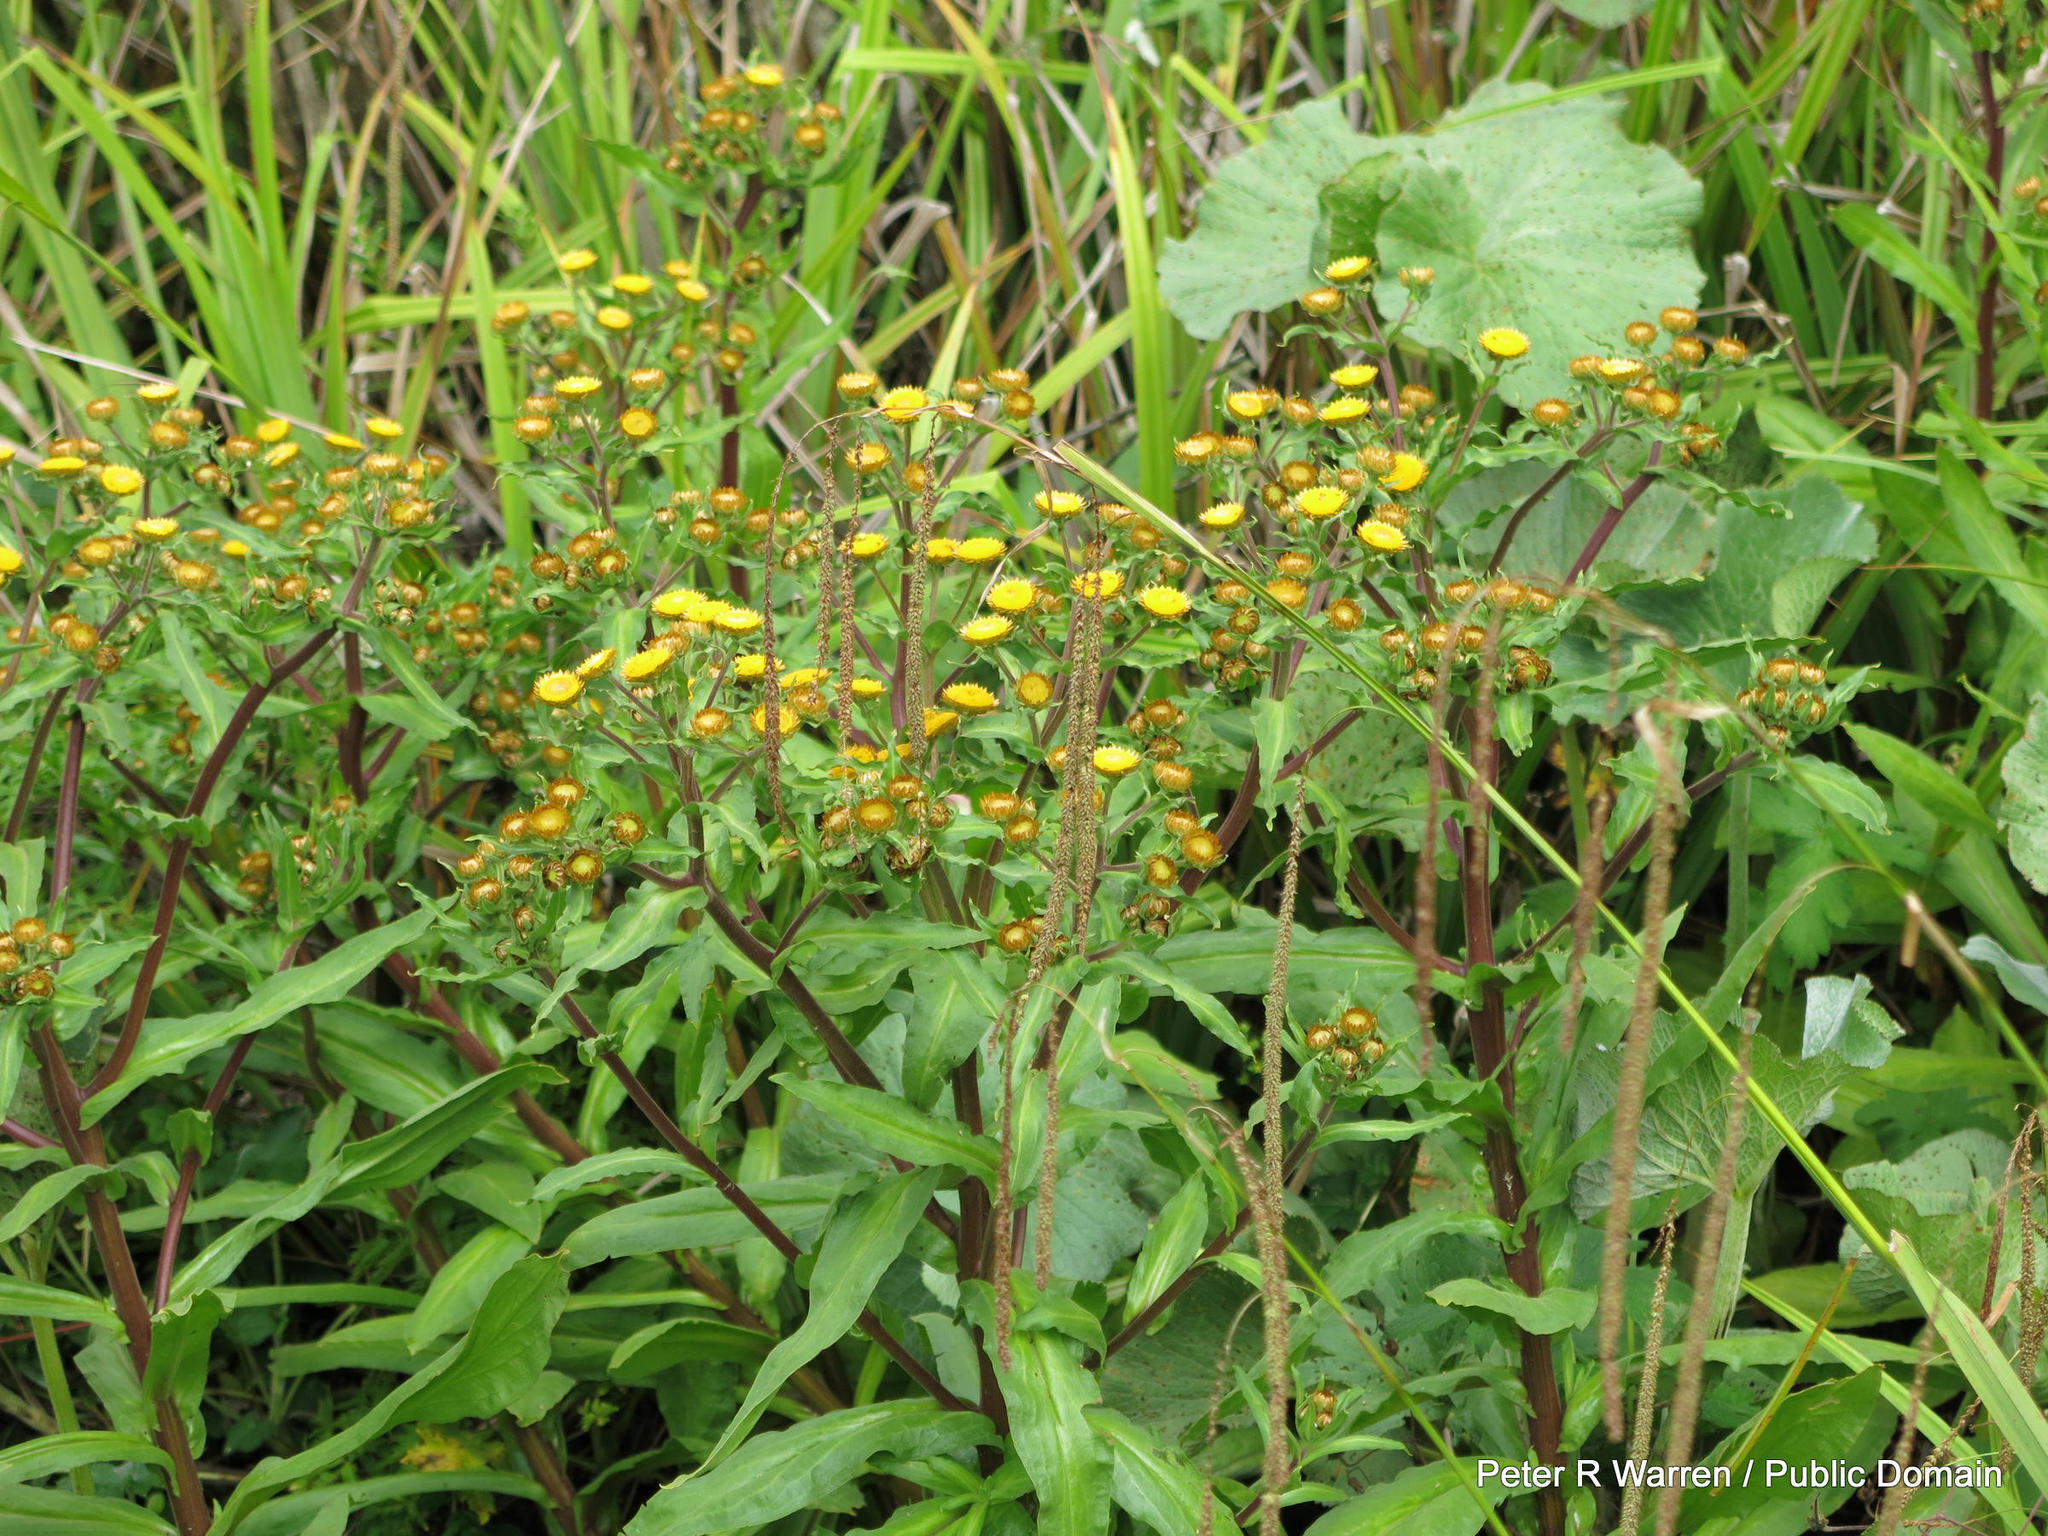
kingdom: Plantae
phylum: Tracheophyta
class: Magnoliopsida
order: Asterales
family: Asteraceae
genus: Helichrysum
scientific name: Helichrysum mutabile
